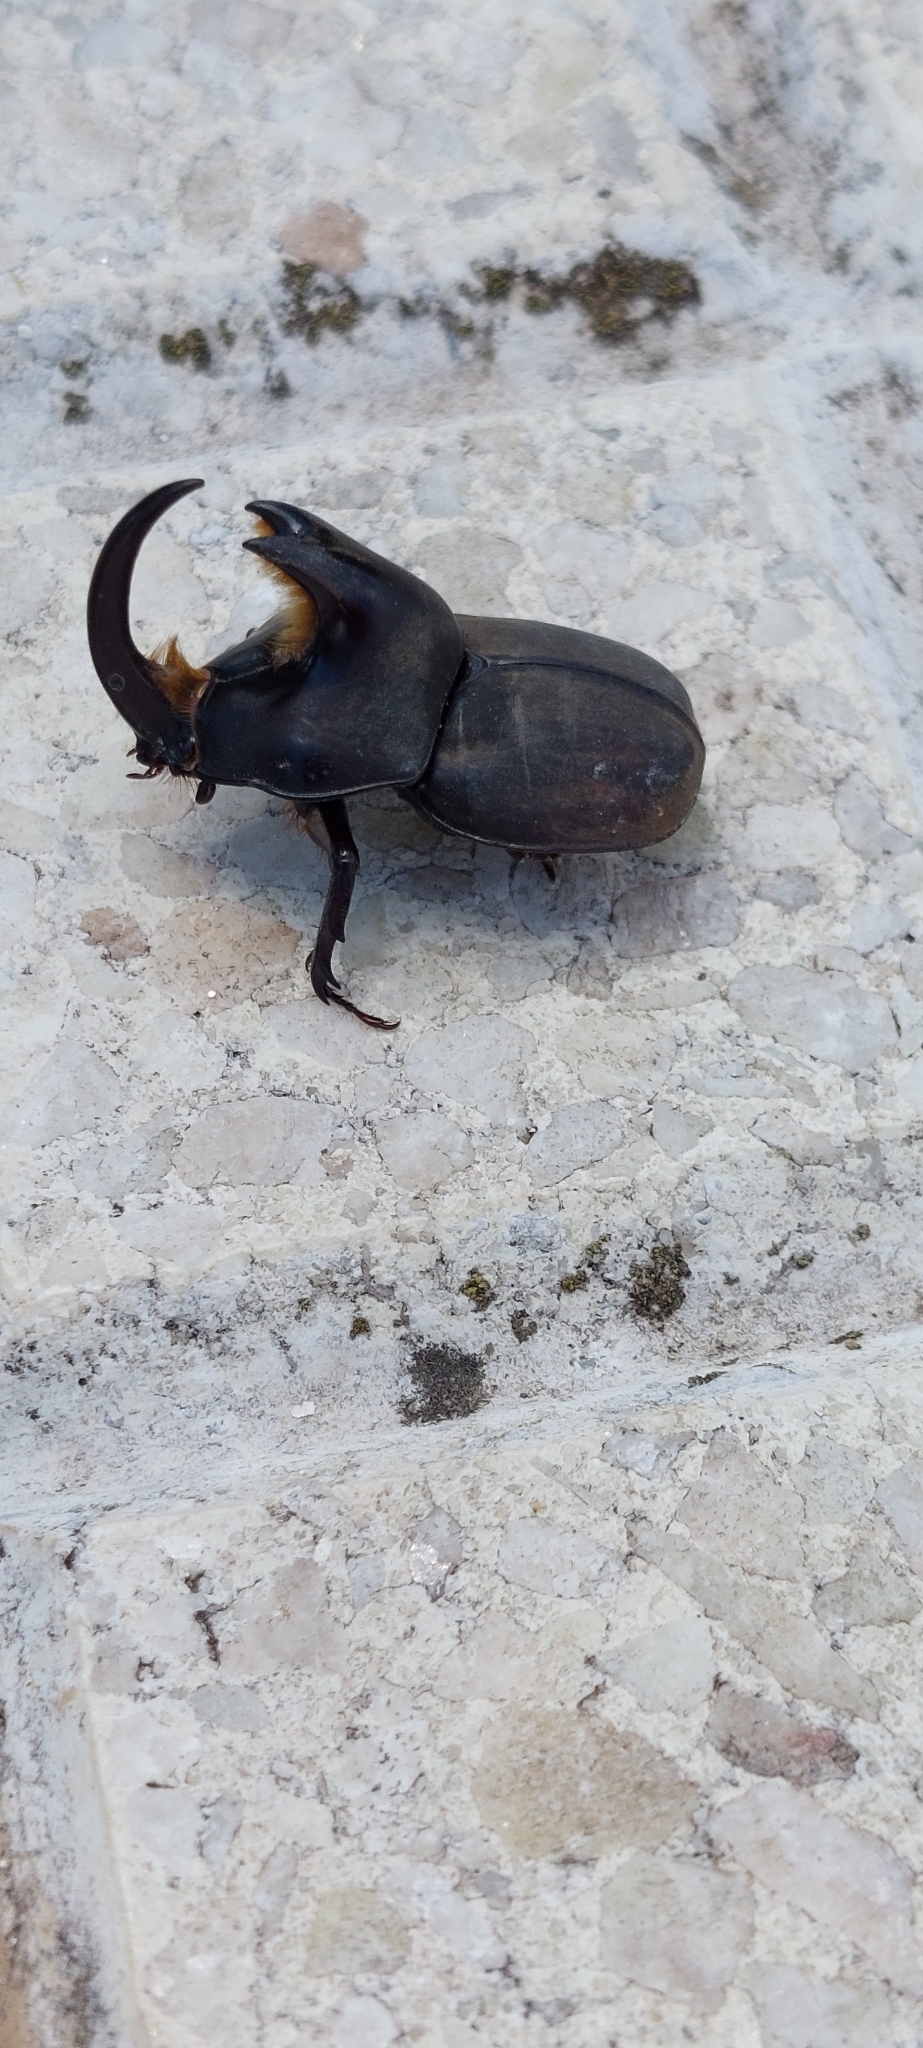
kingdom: Animalia
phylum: Arthropoda
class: Insecta
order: Coleoptera
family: Scarabaeidae
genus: Diloboderus
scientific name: Diloboderus abderus
